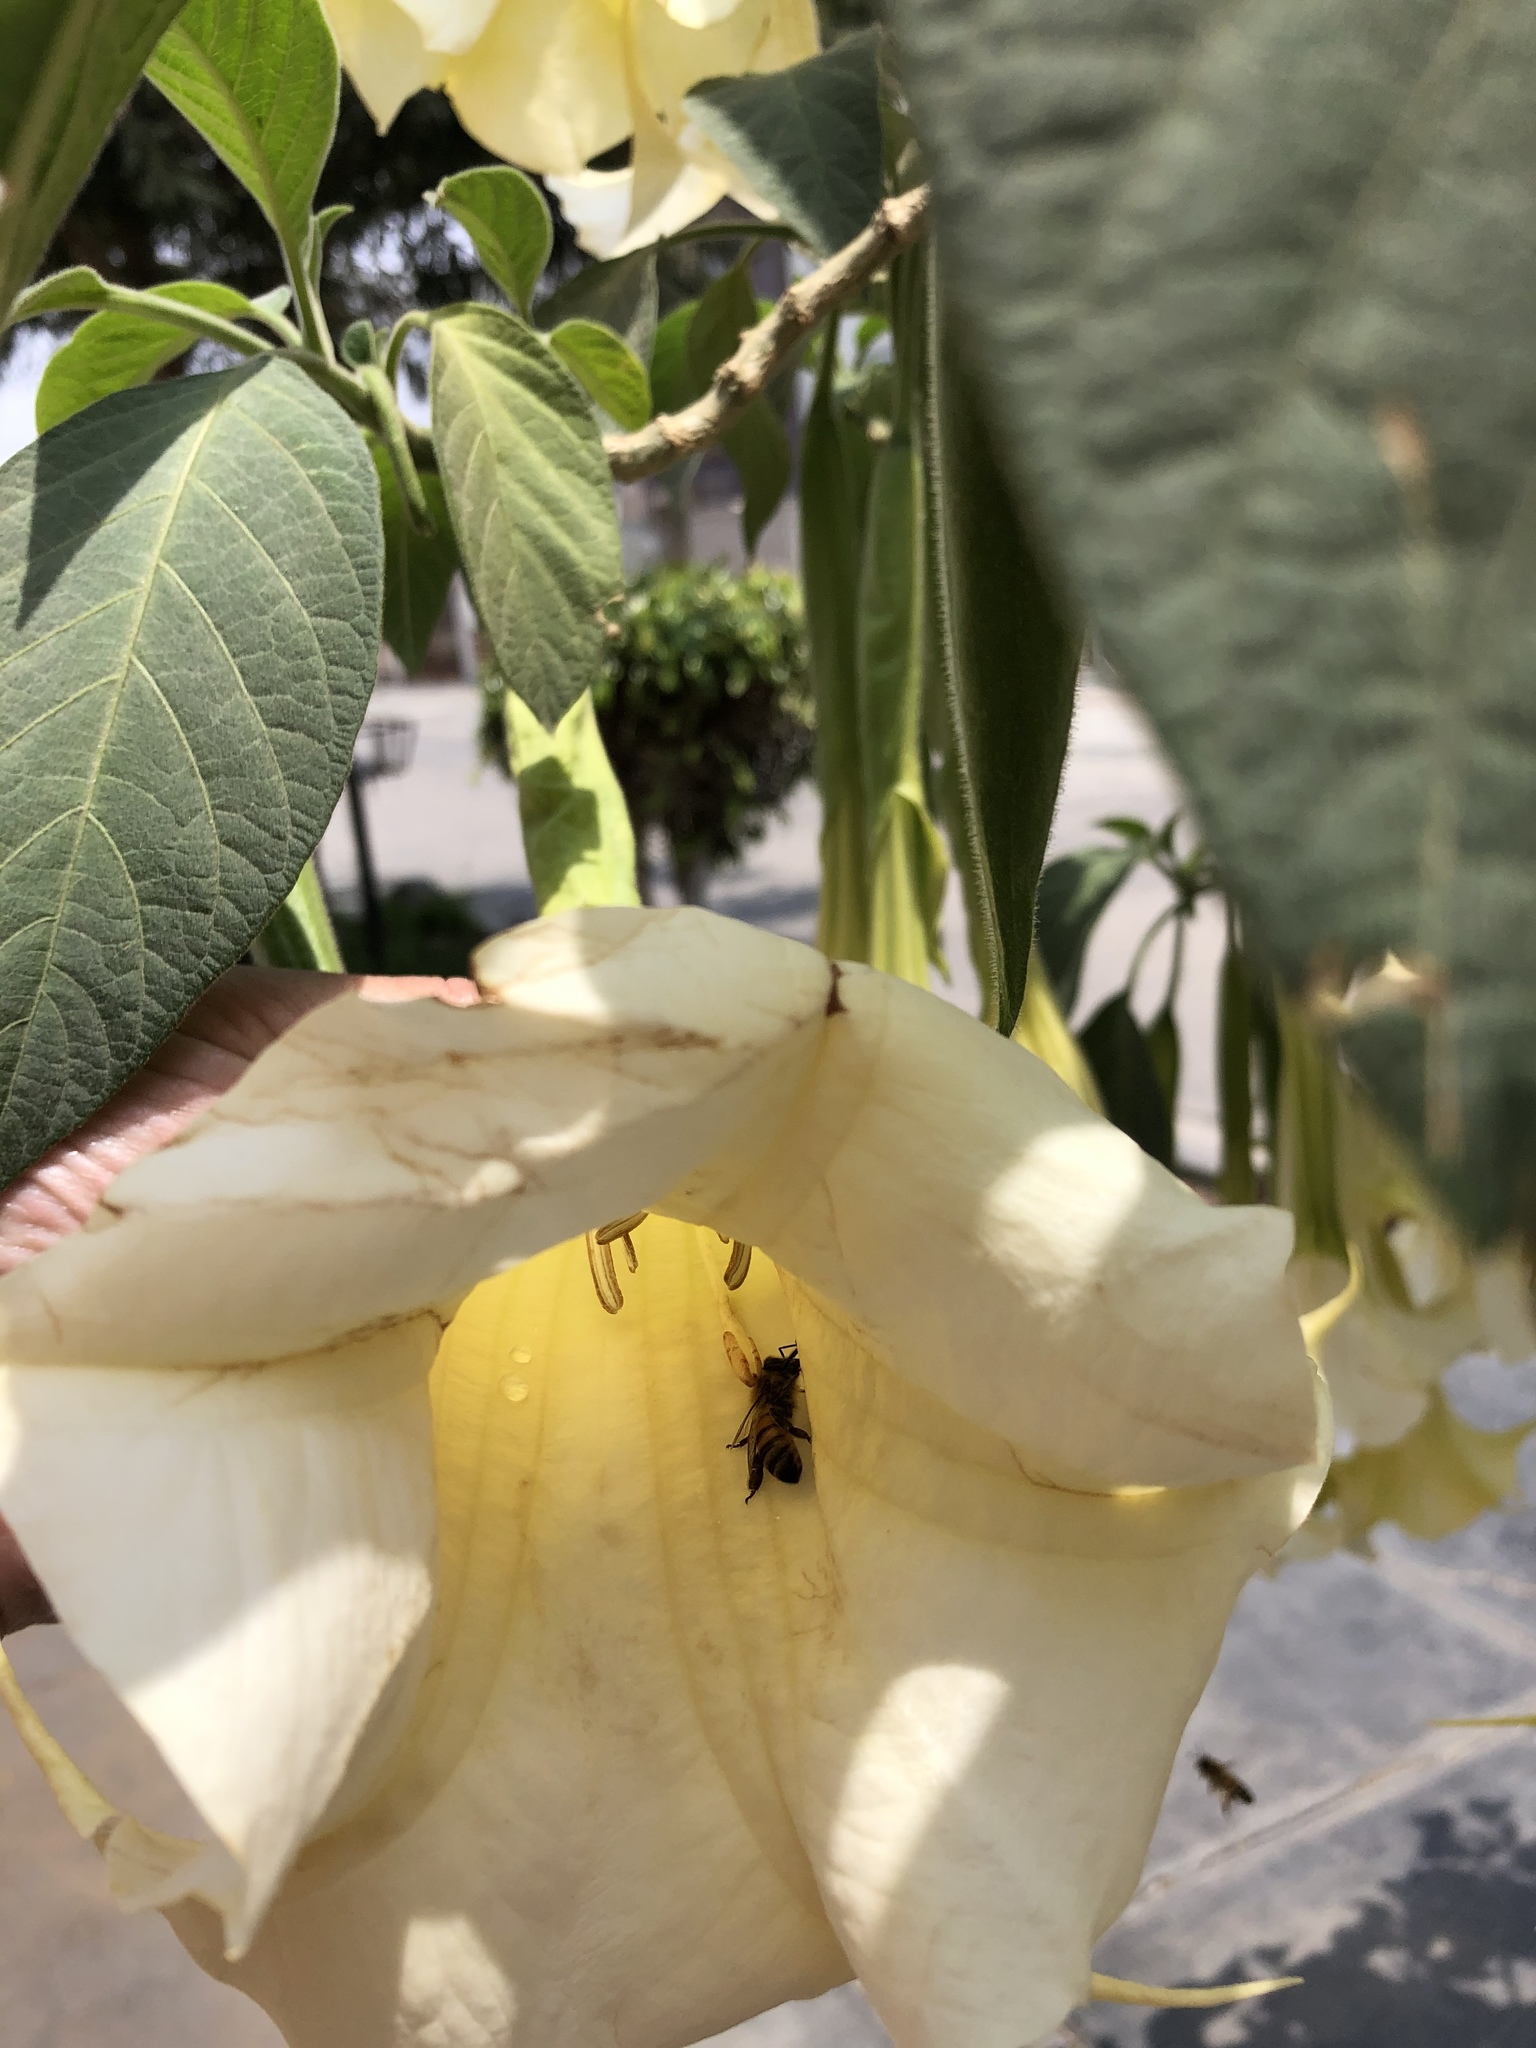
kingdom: Animalia
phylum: Arthropoda
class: Insecta
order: Hymenoptera
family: Apidae
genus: Apis
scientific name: Apis mellifera
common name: Honey bee
